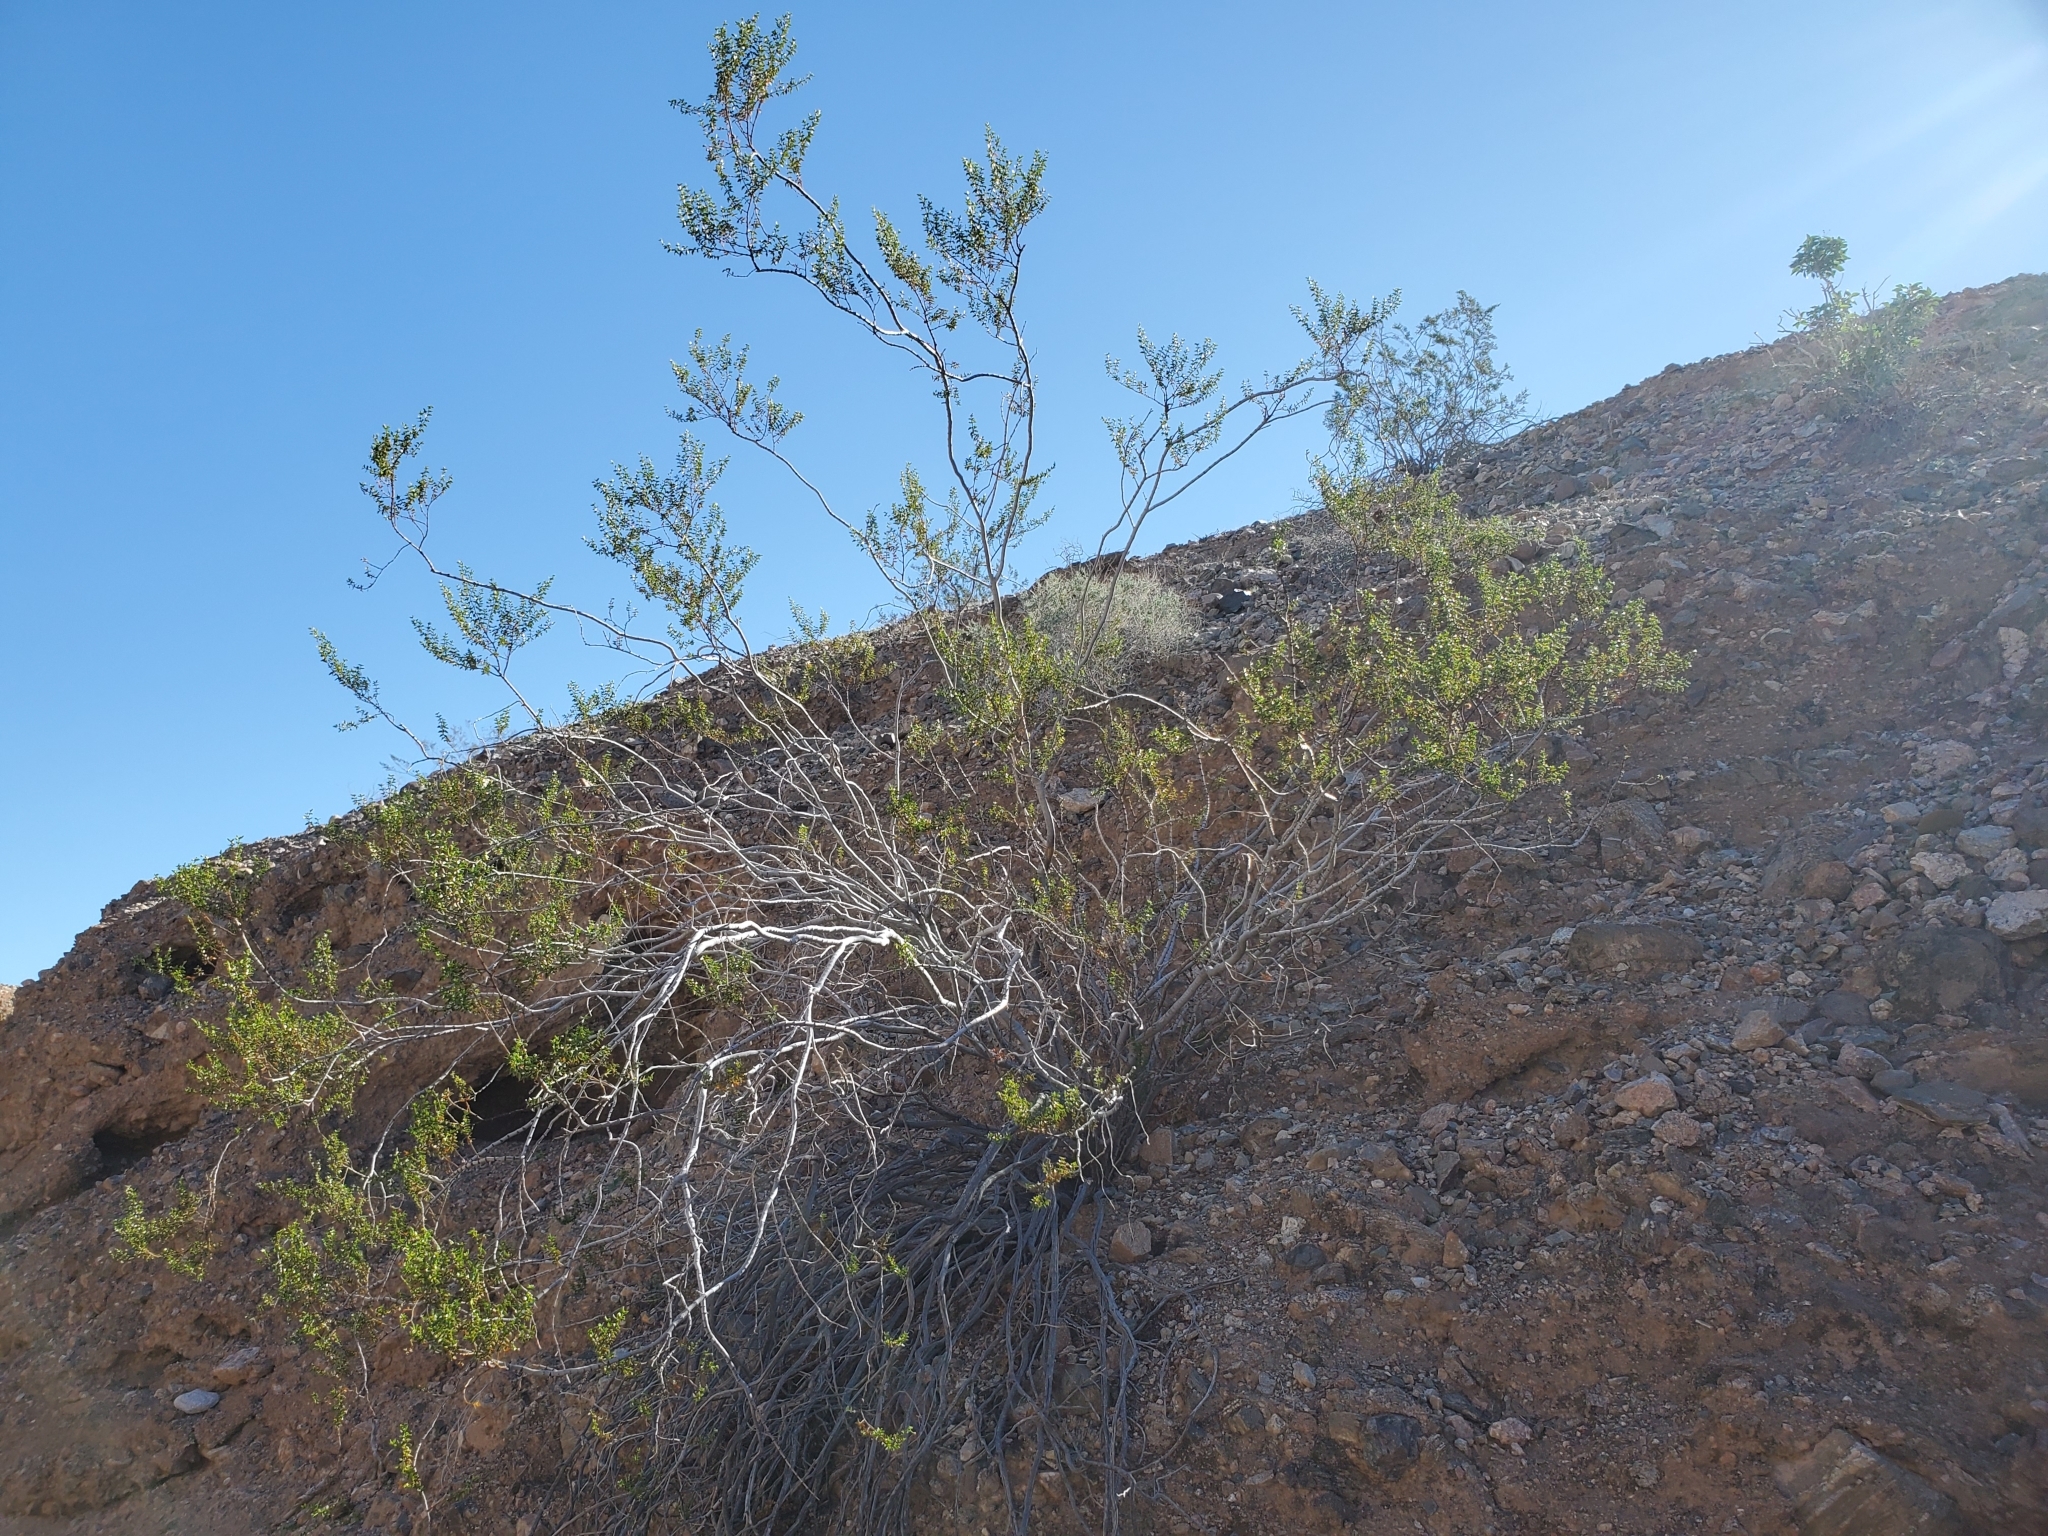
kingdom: Plantae
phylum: Tracheophyta
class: Magnoliopsida
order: Zygophyllales
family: Zygophyllaceae
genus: Larrea
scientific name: Larrea tridentata
